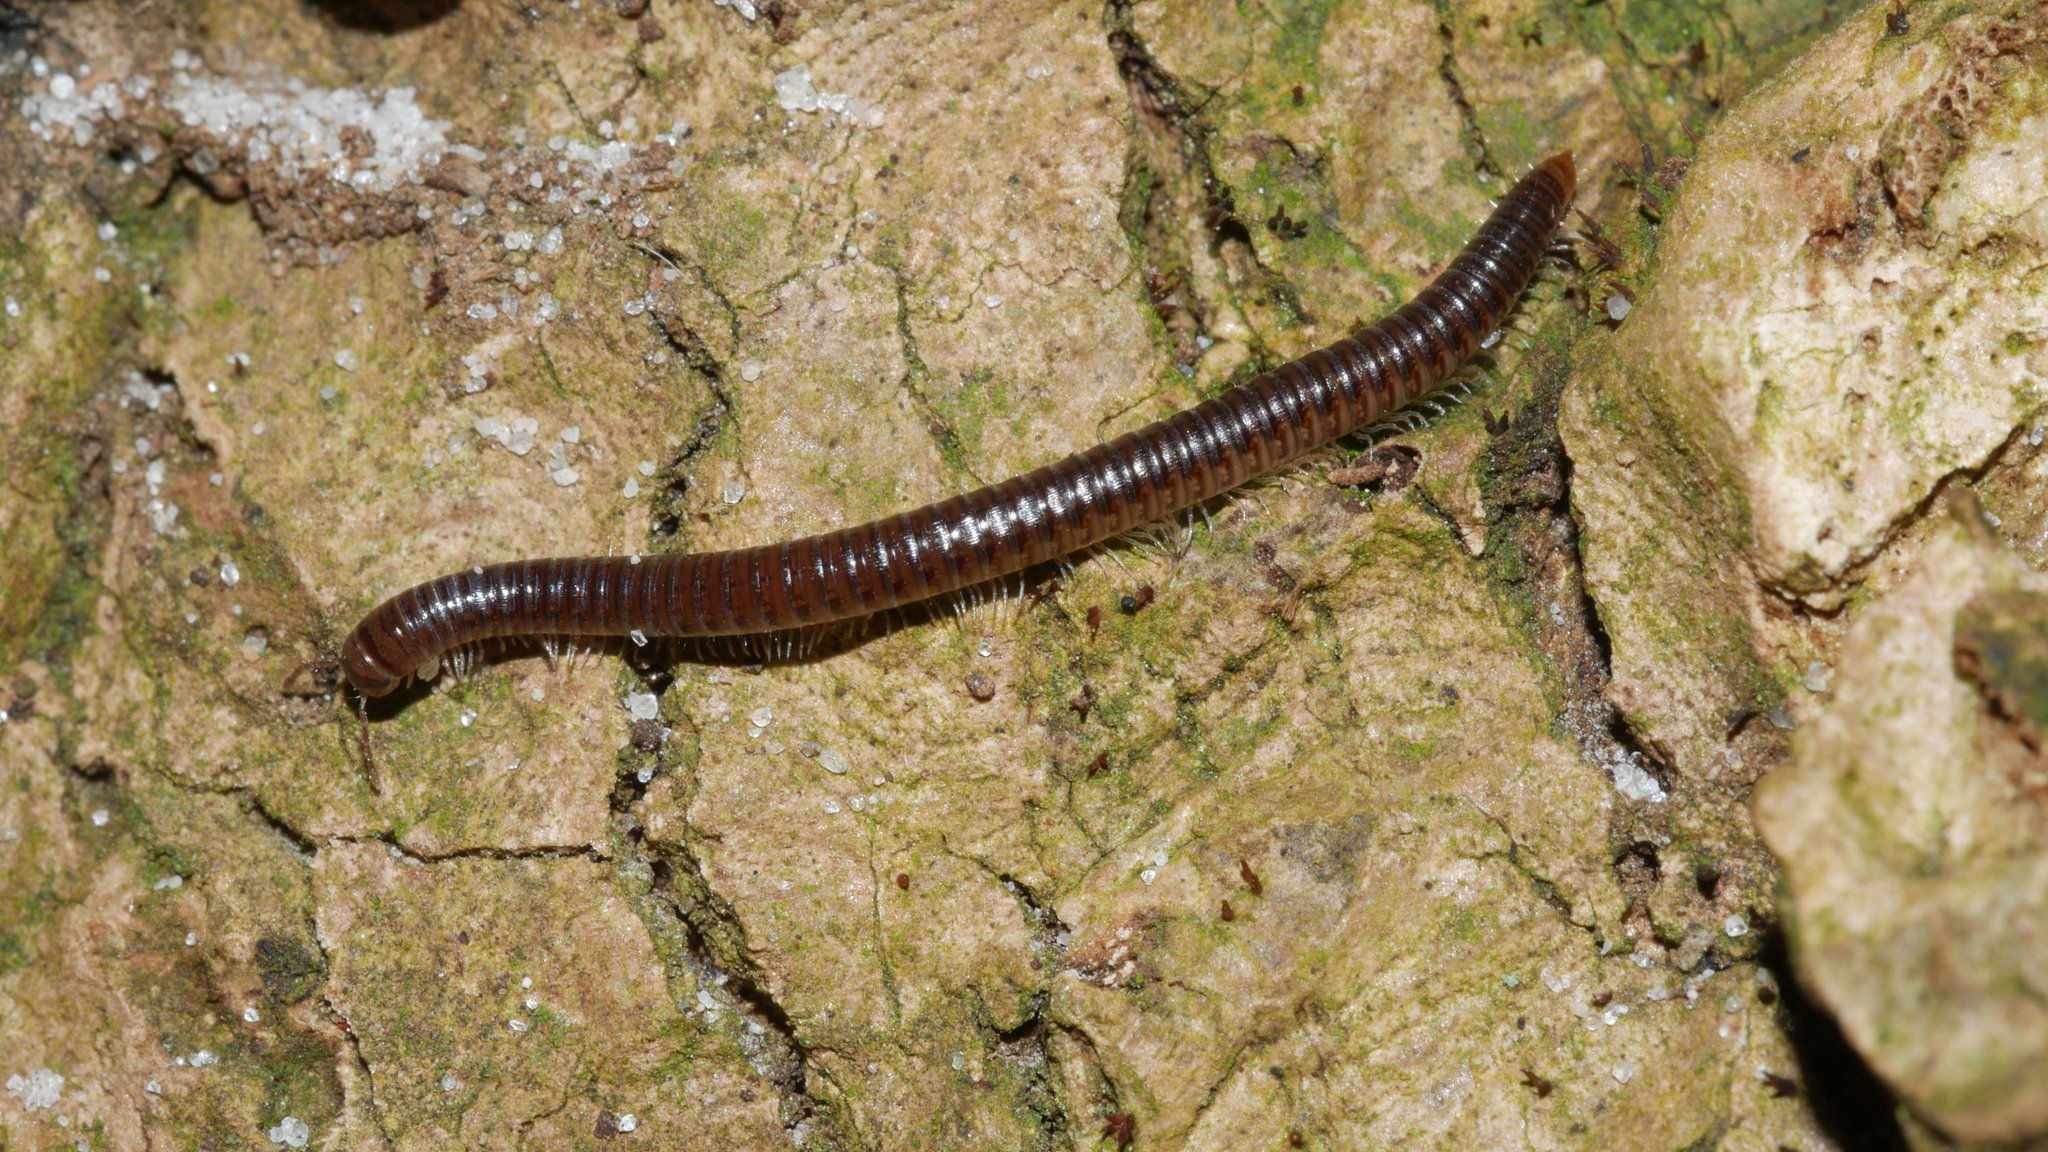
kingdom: Animalia
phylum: Arthropoda
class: Diplopoda
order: Julida
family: Julidae
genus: Ophyiulus
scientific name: Ophyiulus pilosus
